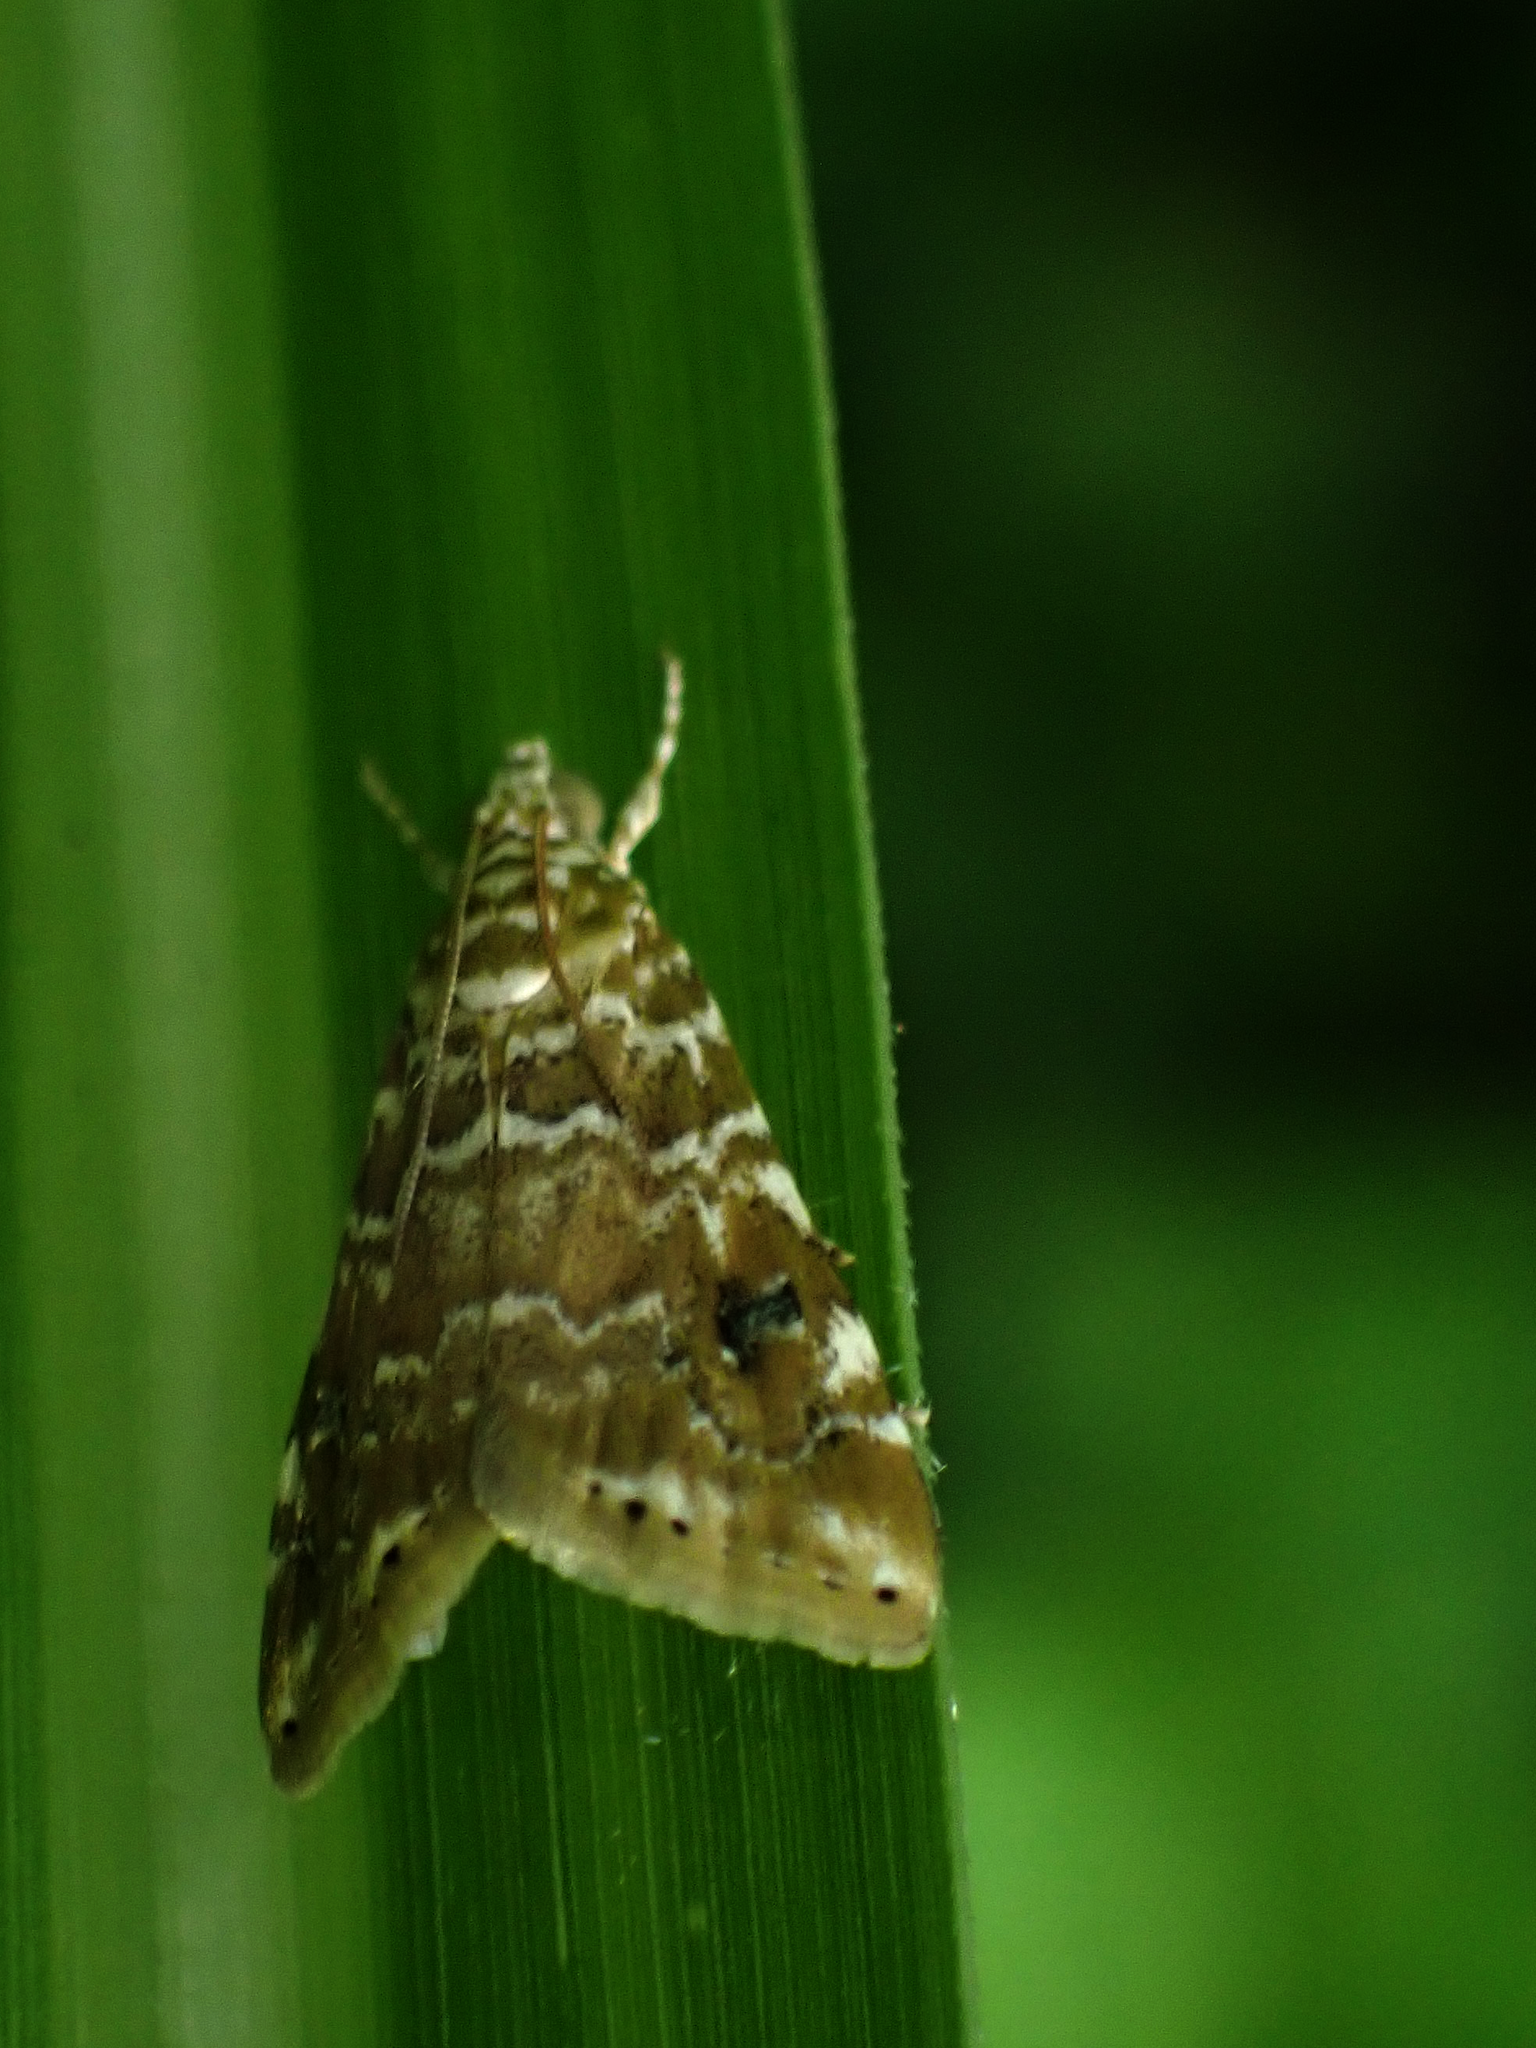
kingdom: Animalia
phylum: Arthropoda
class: Insecta
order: Lepidoptera
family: Crambidae
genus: Hellula
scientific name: Hellula rogatalis
